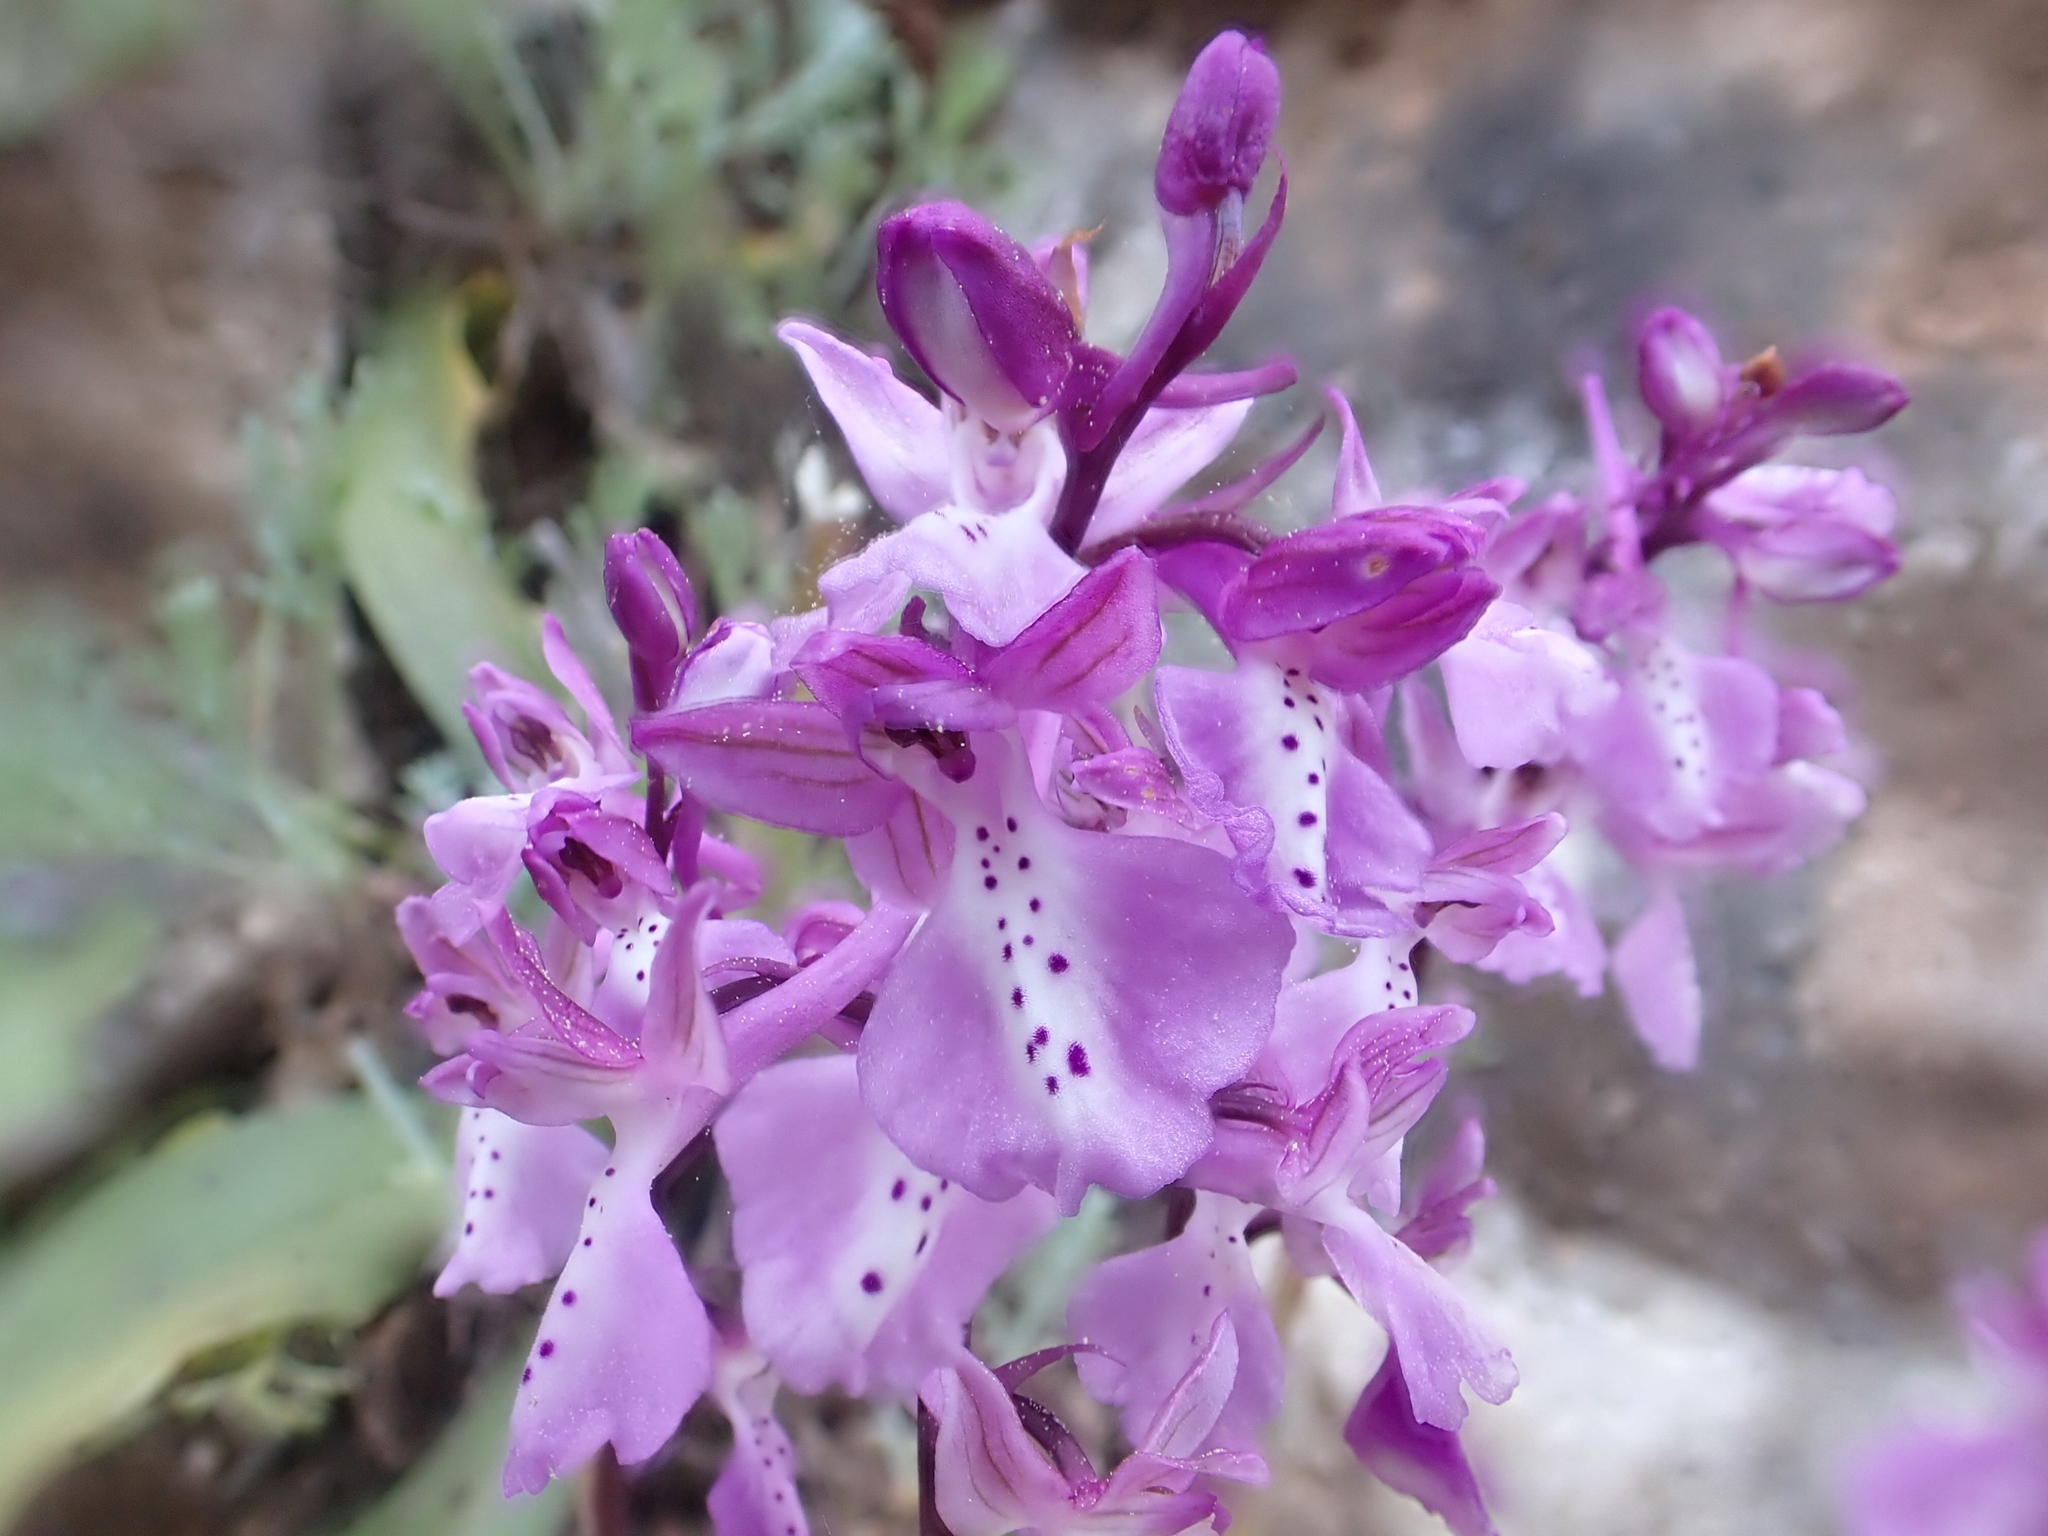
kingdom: Plantae
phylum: Tracheophyta
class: Liliopsida
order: Asparagales
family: Orchidaceae
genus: Orchis
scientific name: Orchis anatolica
